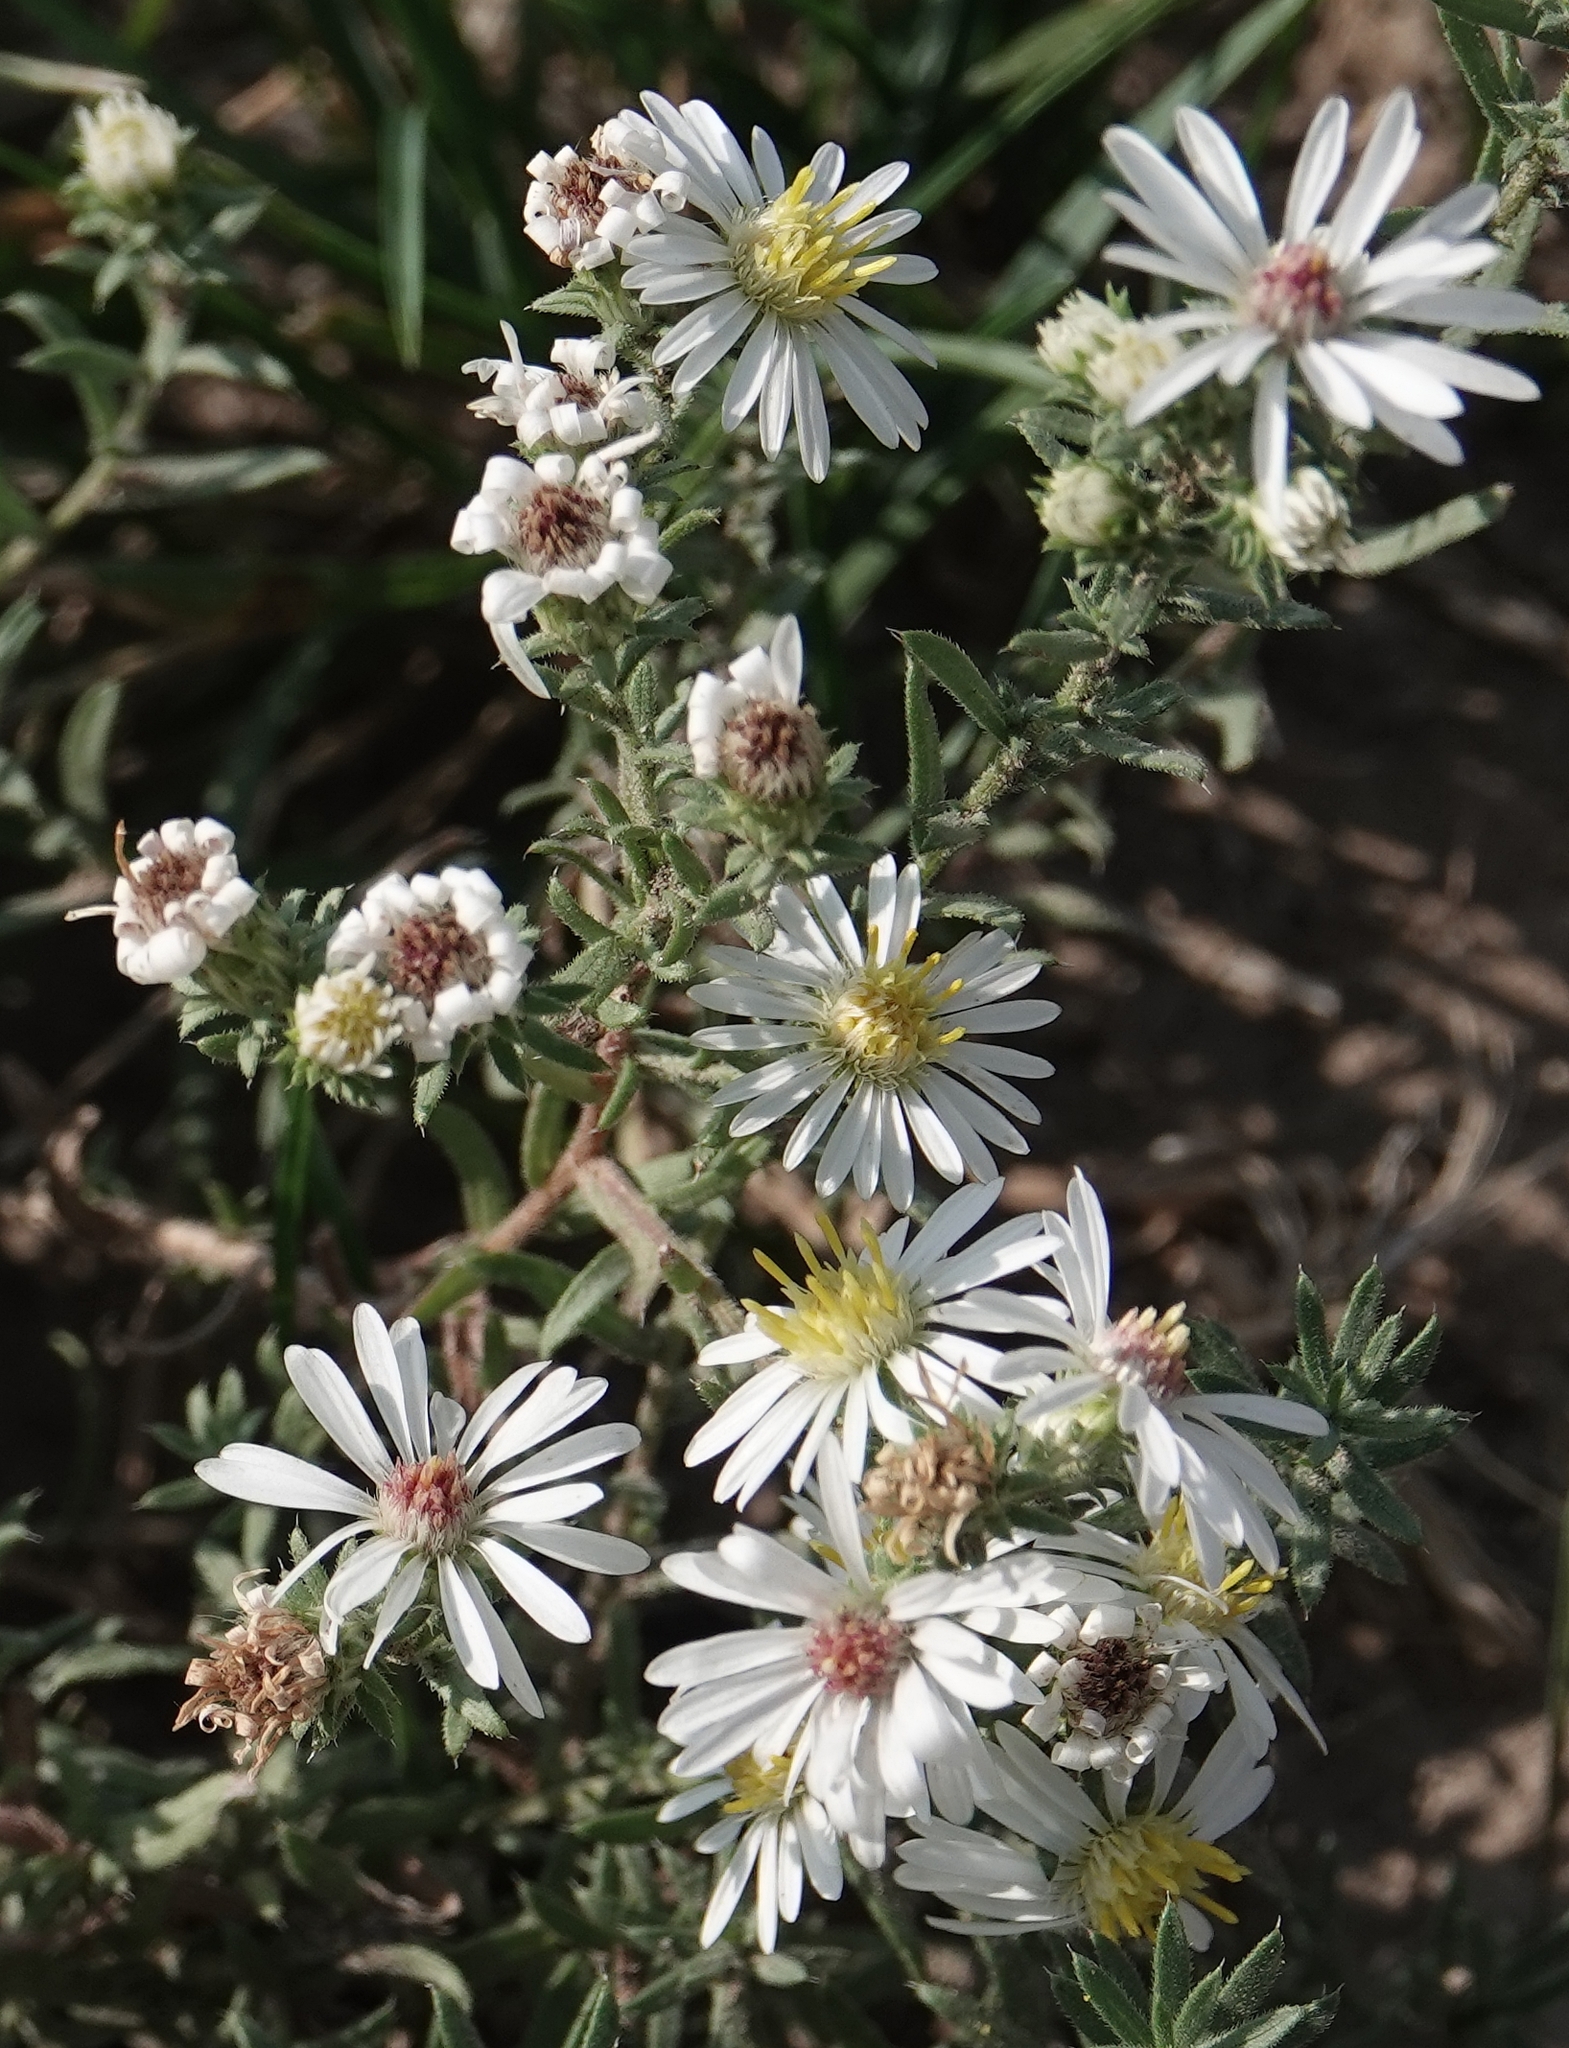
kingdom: Plantae
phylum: Tracheophyta
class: Magnoliopsida
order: Asterales
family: Asteraceae
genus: Symphyotrichum
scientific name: Symphyotrichum falcatum
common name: Creeping white prairie aster
